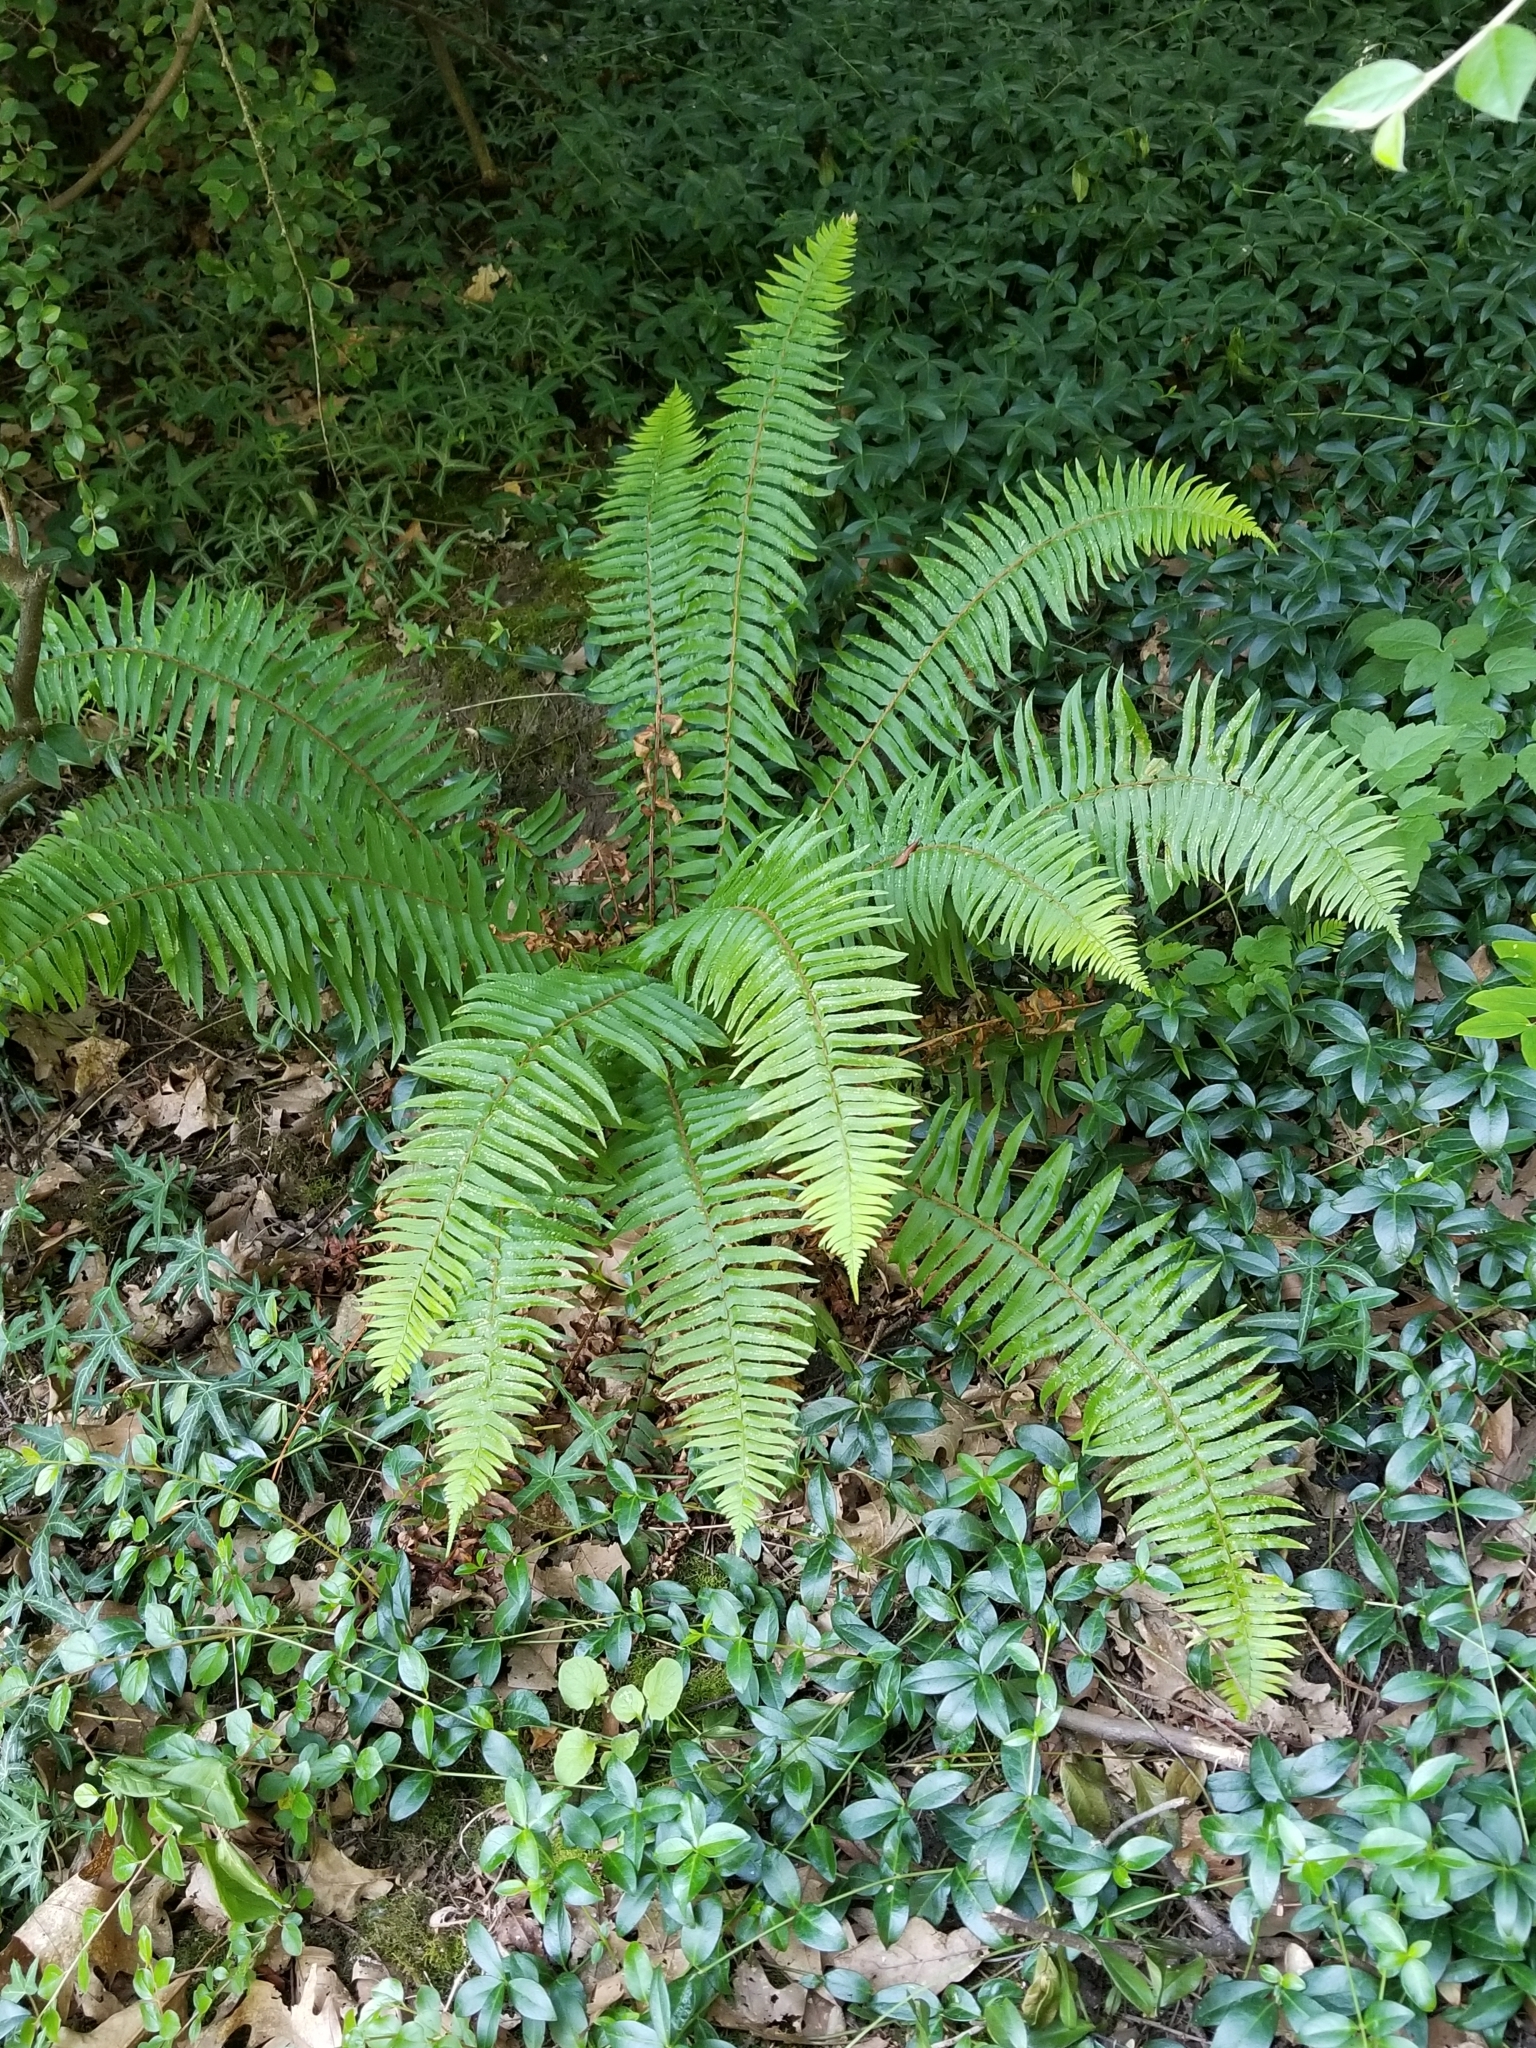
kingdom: Plantae
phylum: Tracheophyta
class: Polypodiopsida
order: Polypodiales
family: Dryopteridaceae
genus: Polystichum
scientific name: Polystichum munitum
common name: Western sword-fern
